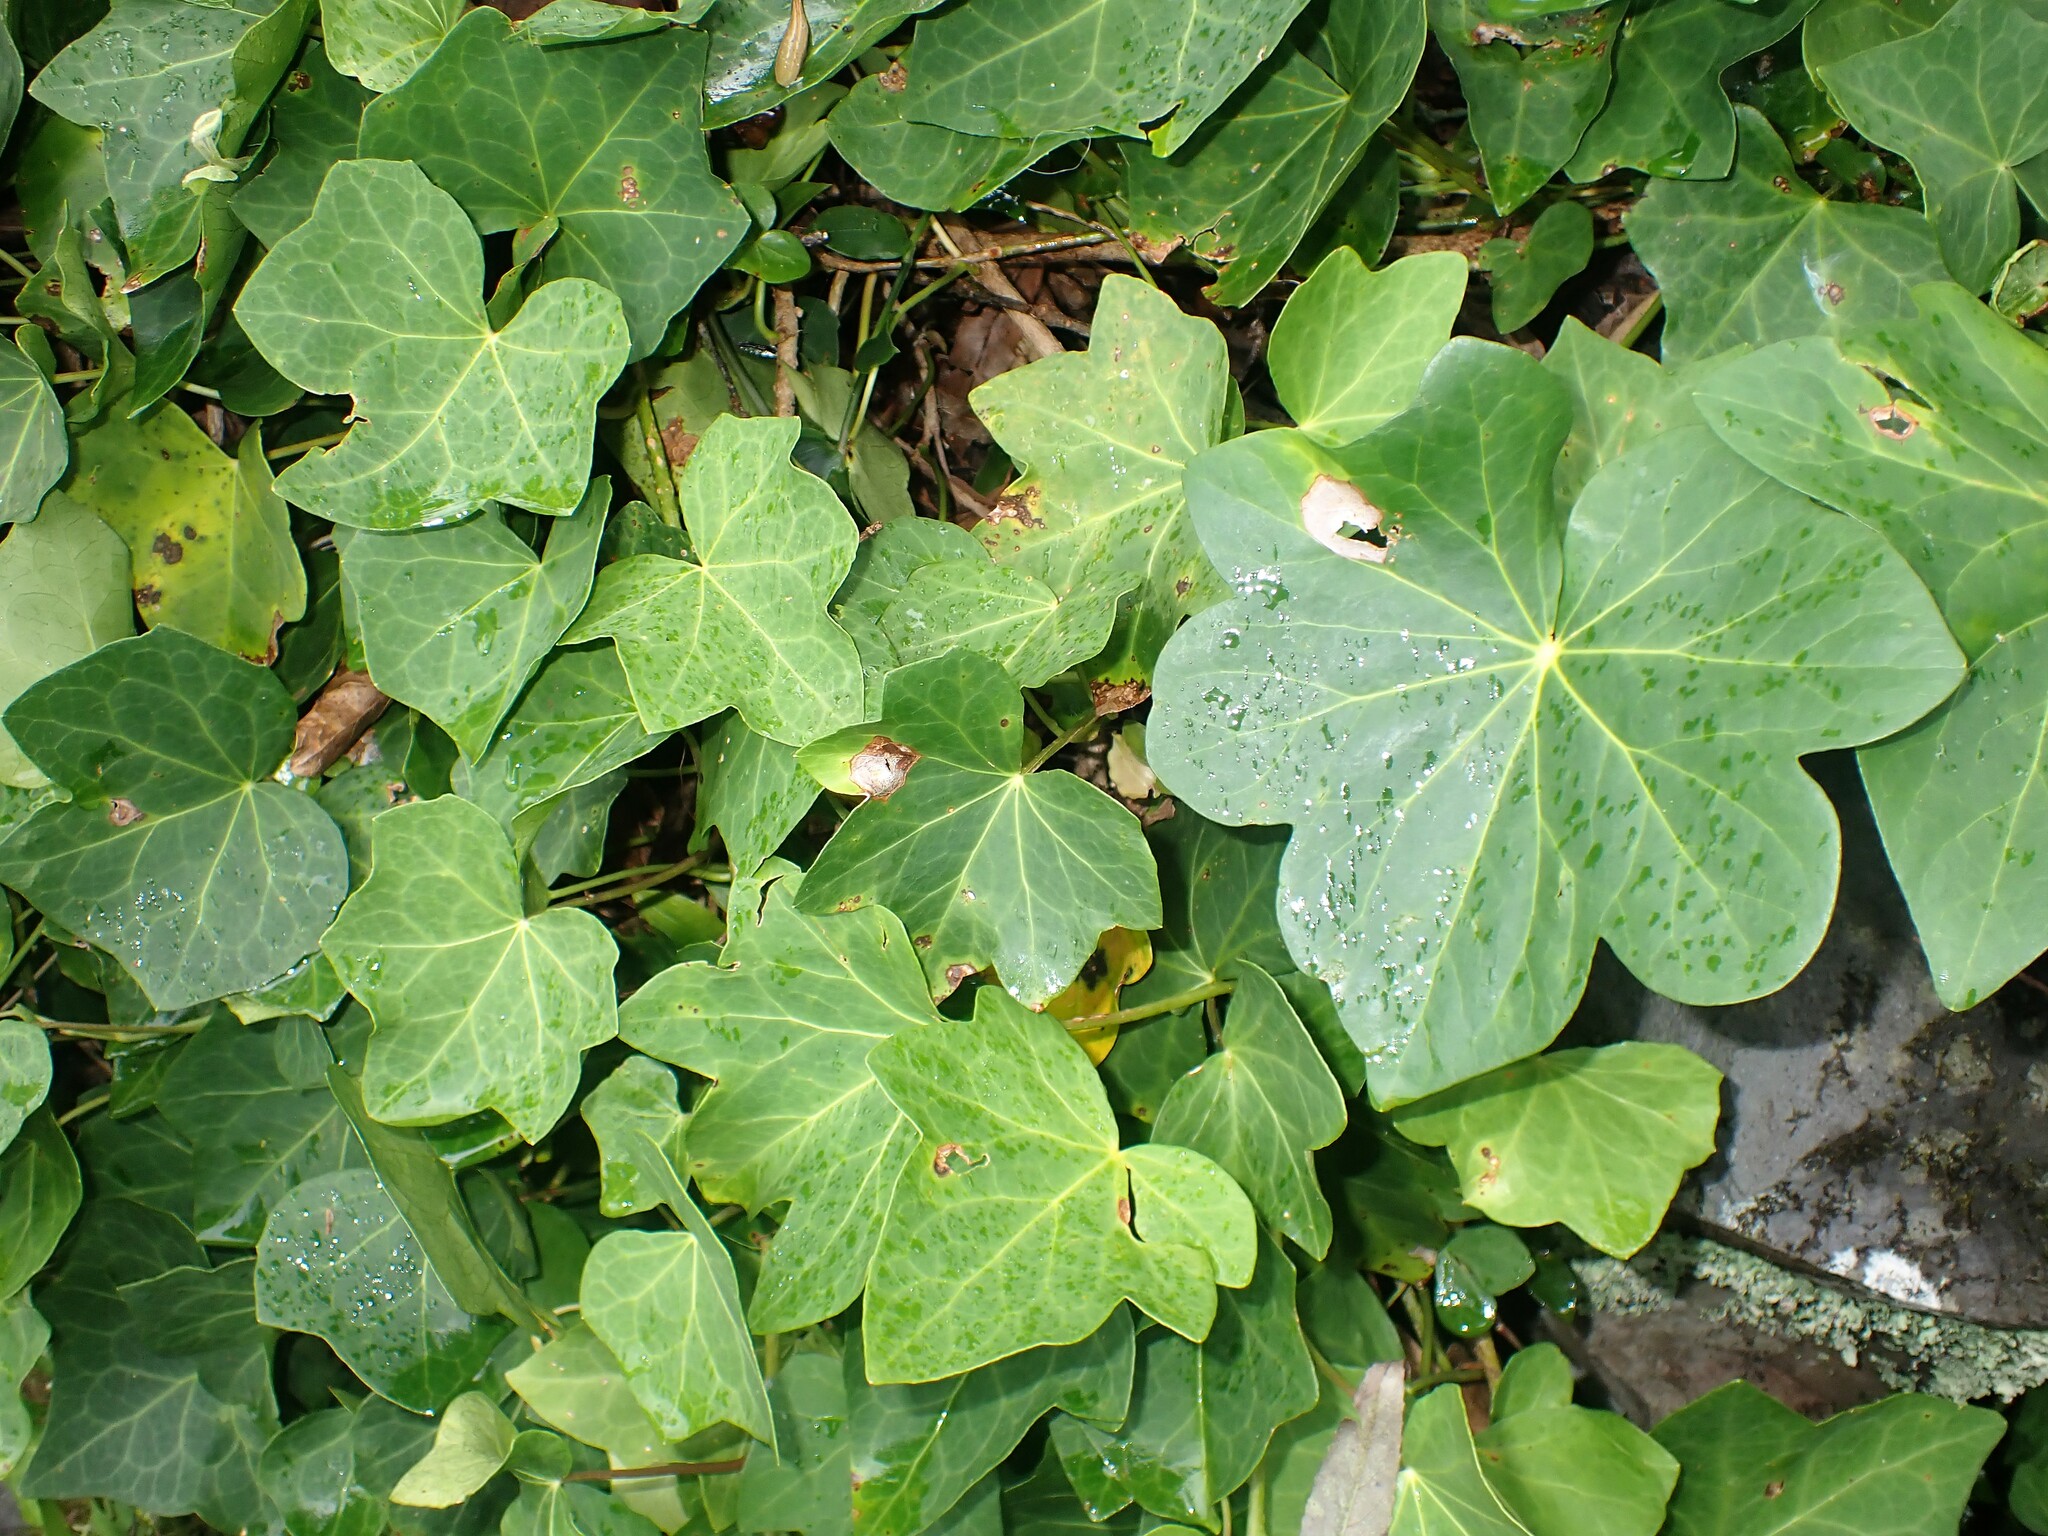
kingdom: Plantae
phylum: Tracheophyta
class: Magnoliopsida
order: Apiales
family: Araliaceae
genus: Hedera
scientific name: Hedera azorica
